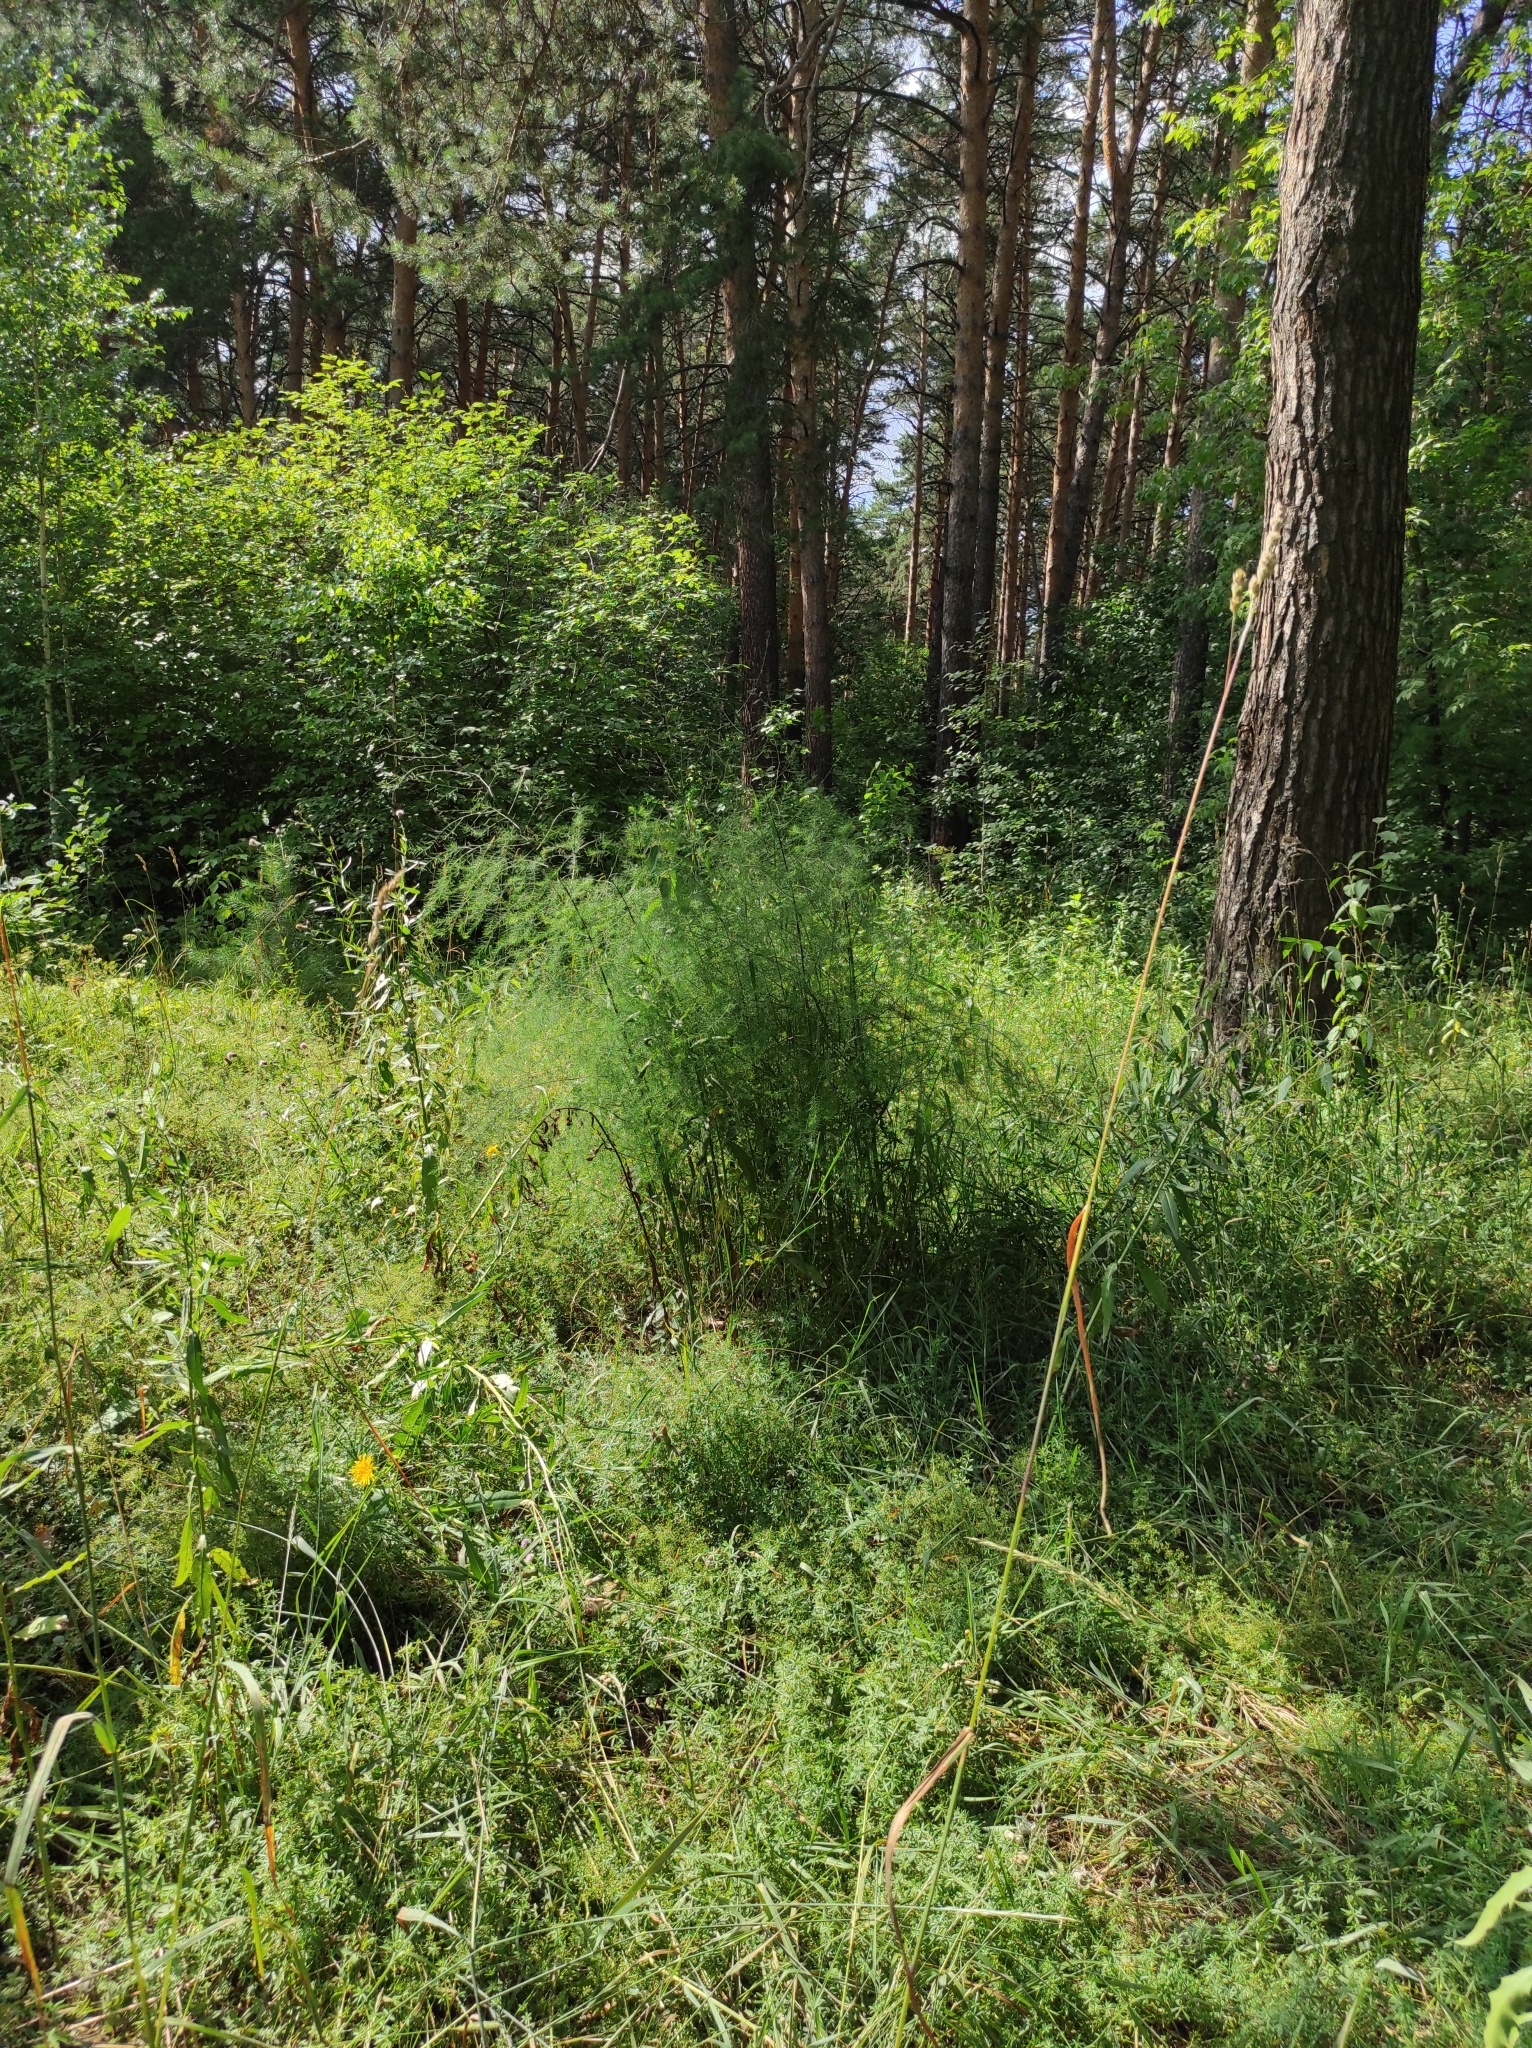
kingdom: Plantae
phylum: Tracheophyta
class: Liliopsida
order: Asparagales
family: Asparagaceae
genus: Asparagus
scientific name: Asparagus officinalis
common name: Garden asparagus
